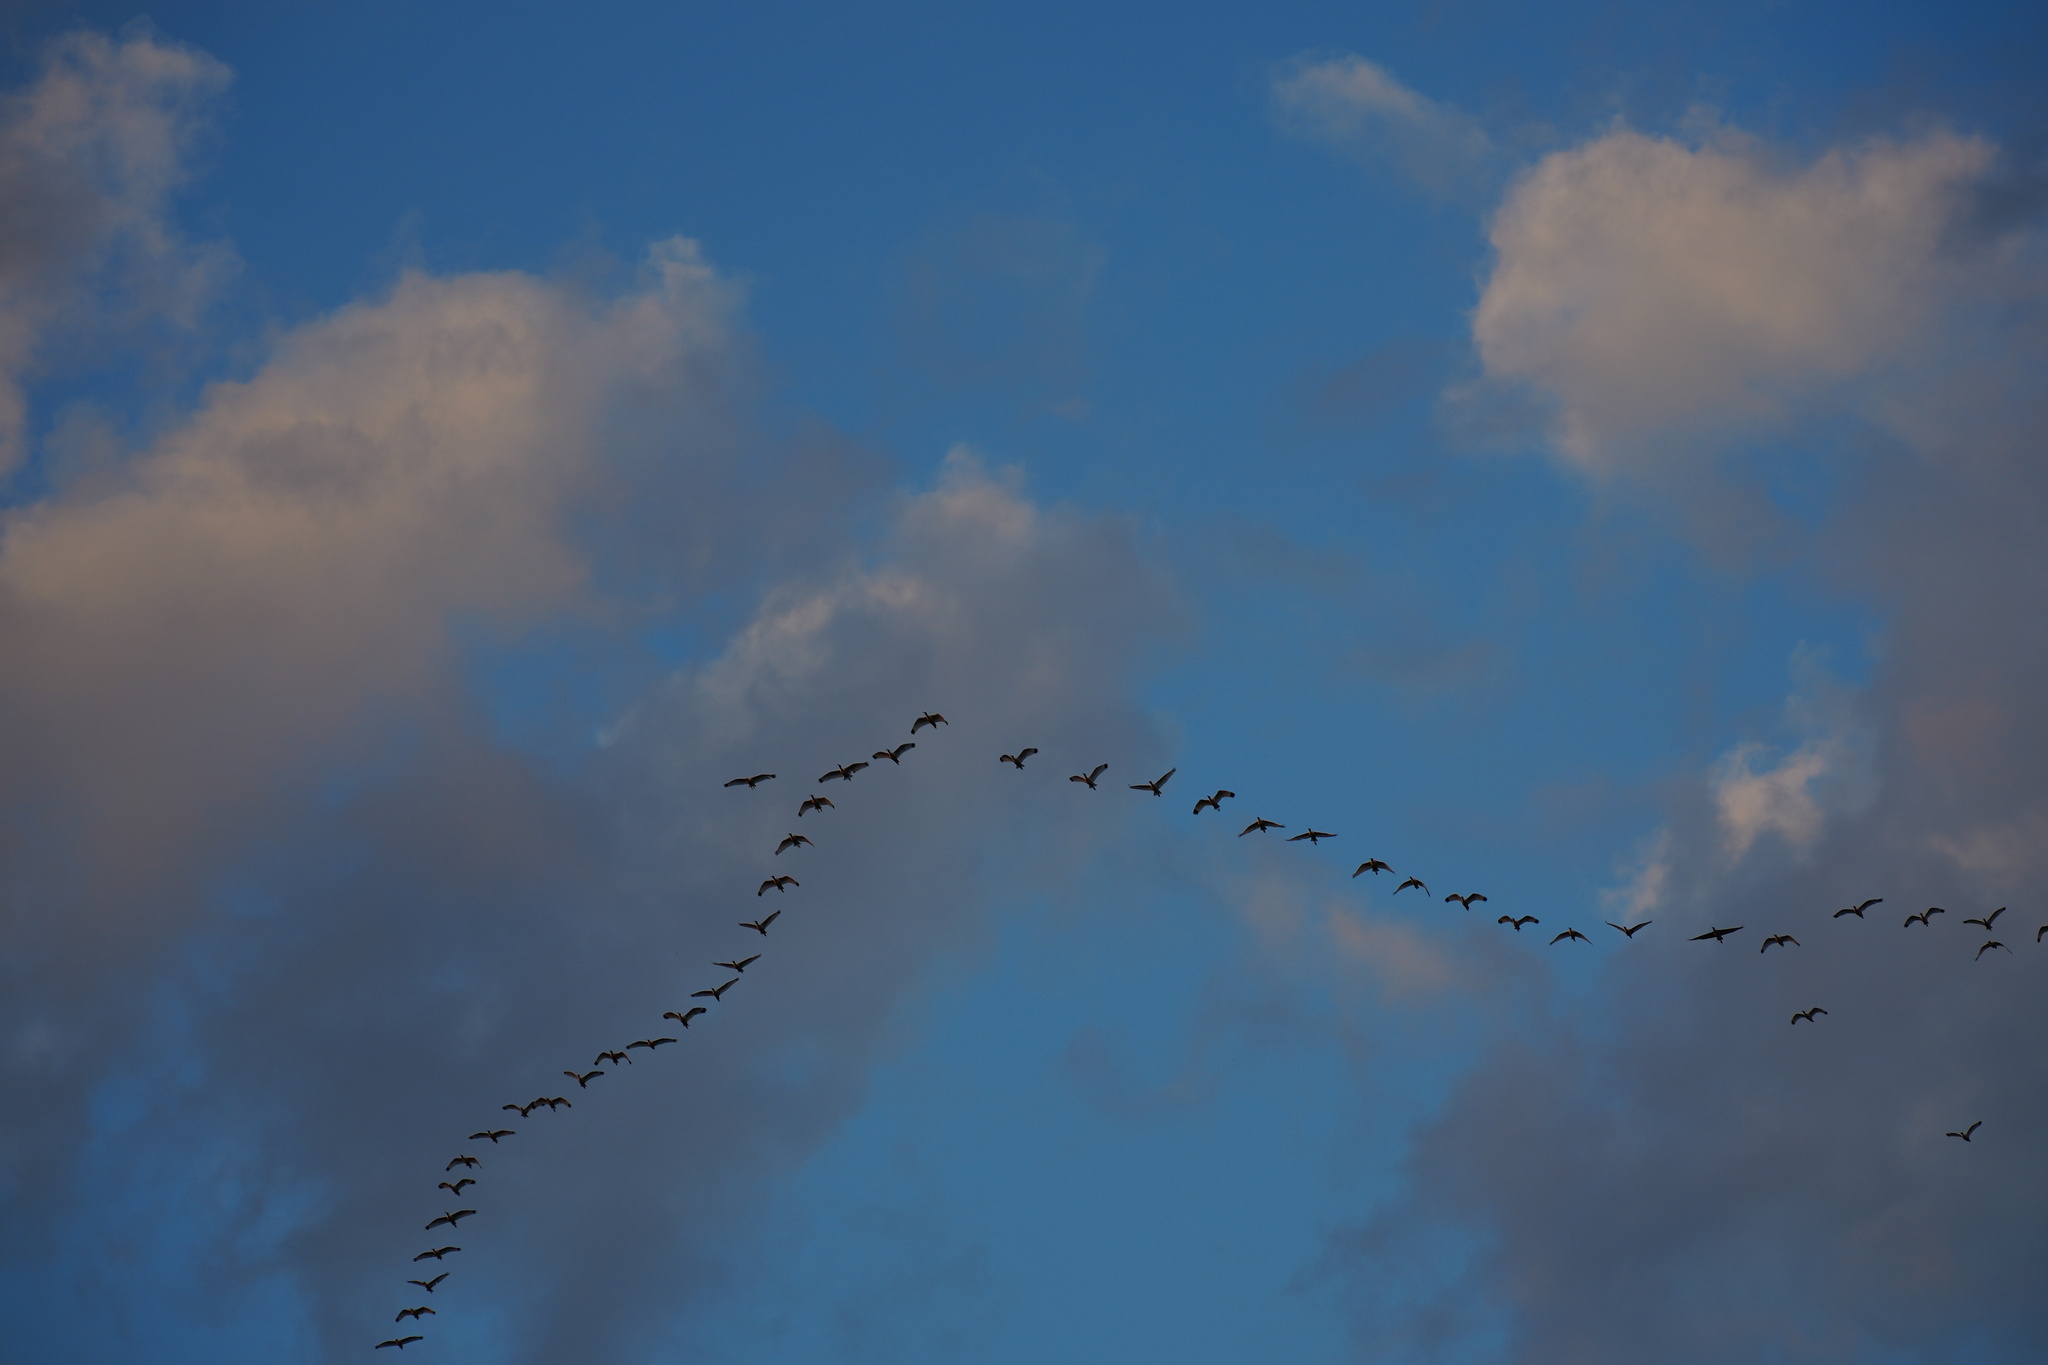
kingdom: Animalia
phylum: Chordata
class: Aves
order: Pelecaniformes
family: Threskiornithidae
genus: Eudocimus
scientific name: Eudocimus albus
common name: White ibis
